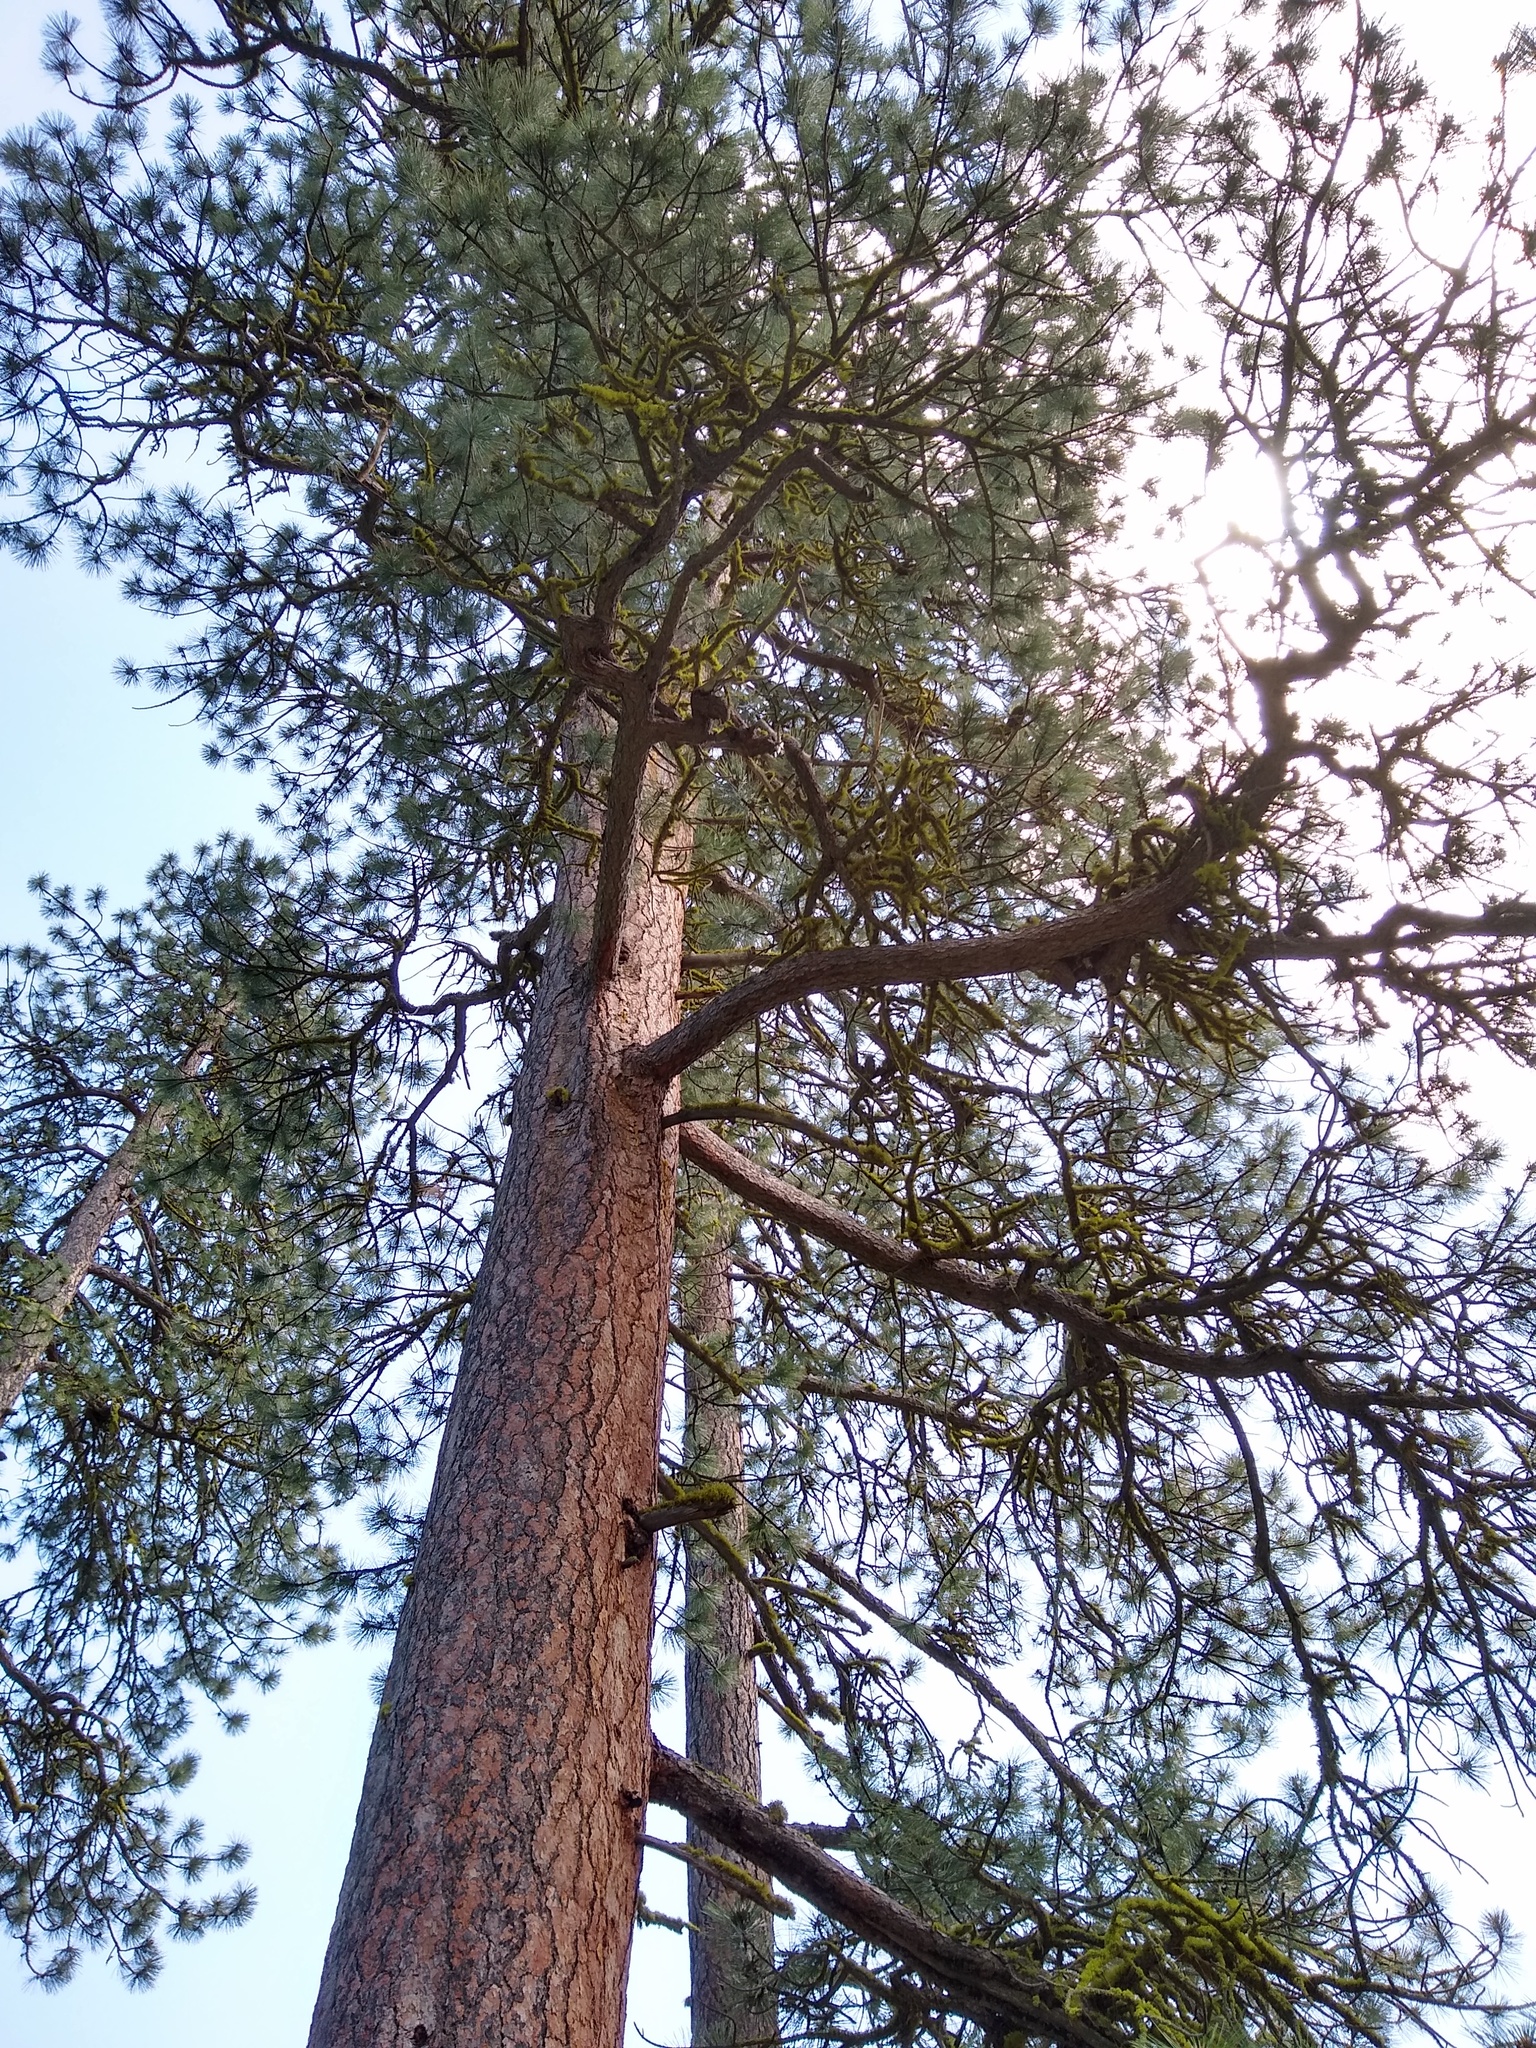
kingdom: Plantae
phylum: Tracheophyta
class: Pinopsida
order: Pinales
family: Pinaceae
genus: Pinus
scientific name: Pinus ponderosa
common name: Western yellow-pine
